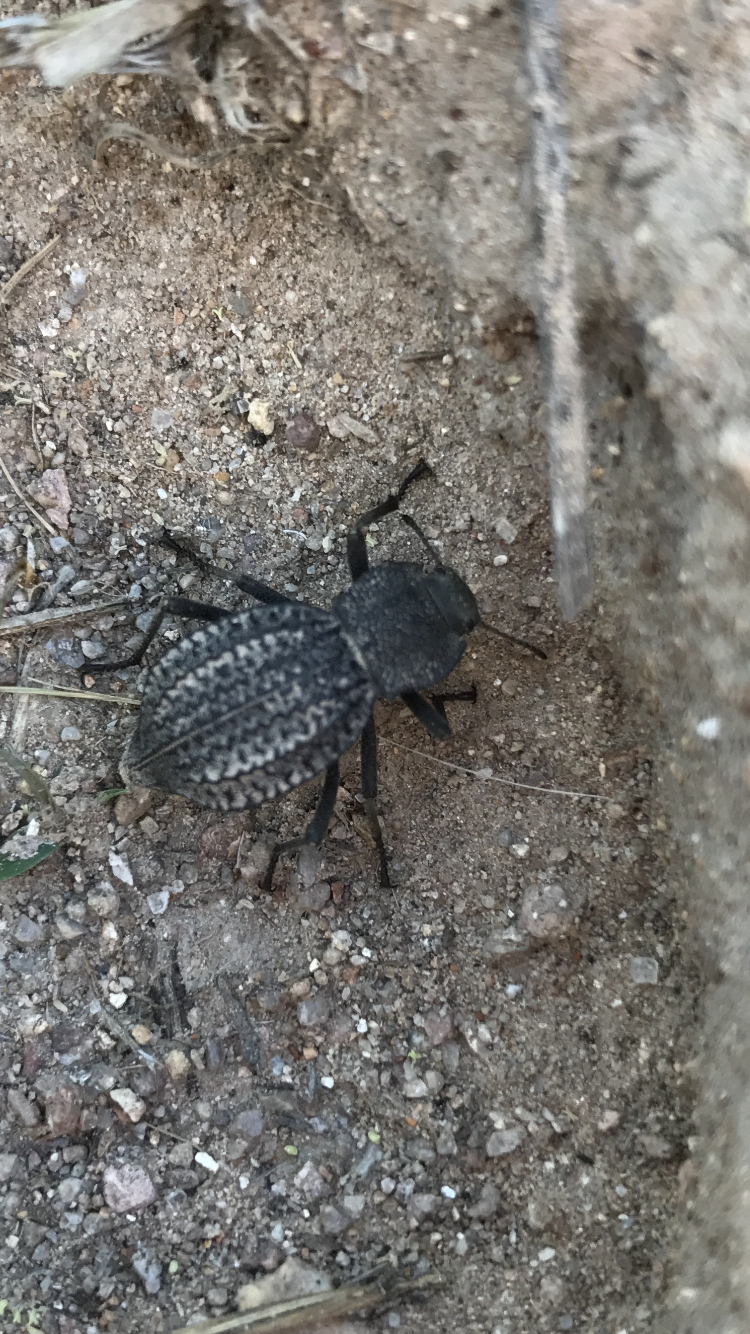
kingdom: Animalia
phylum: Arthropoda
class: Insecta
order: Coleoptera
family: Tenebrionidae
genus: Philolithus
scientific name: Philolithus morbillosus
